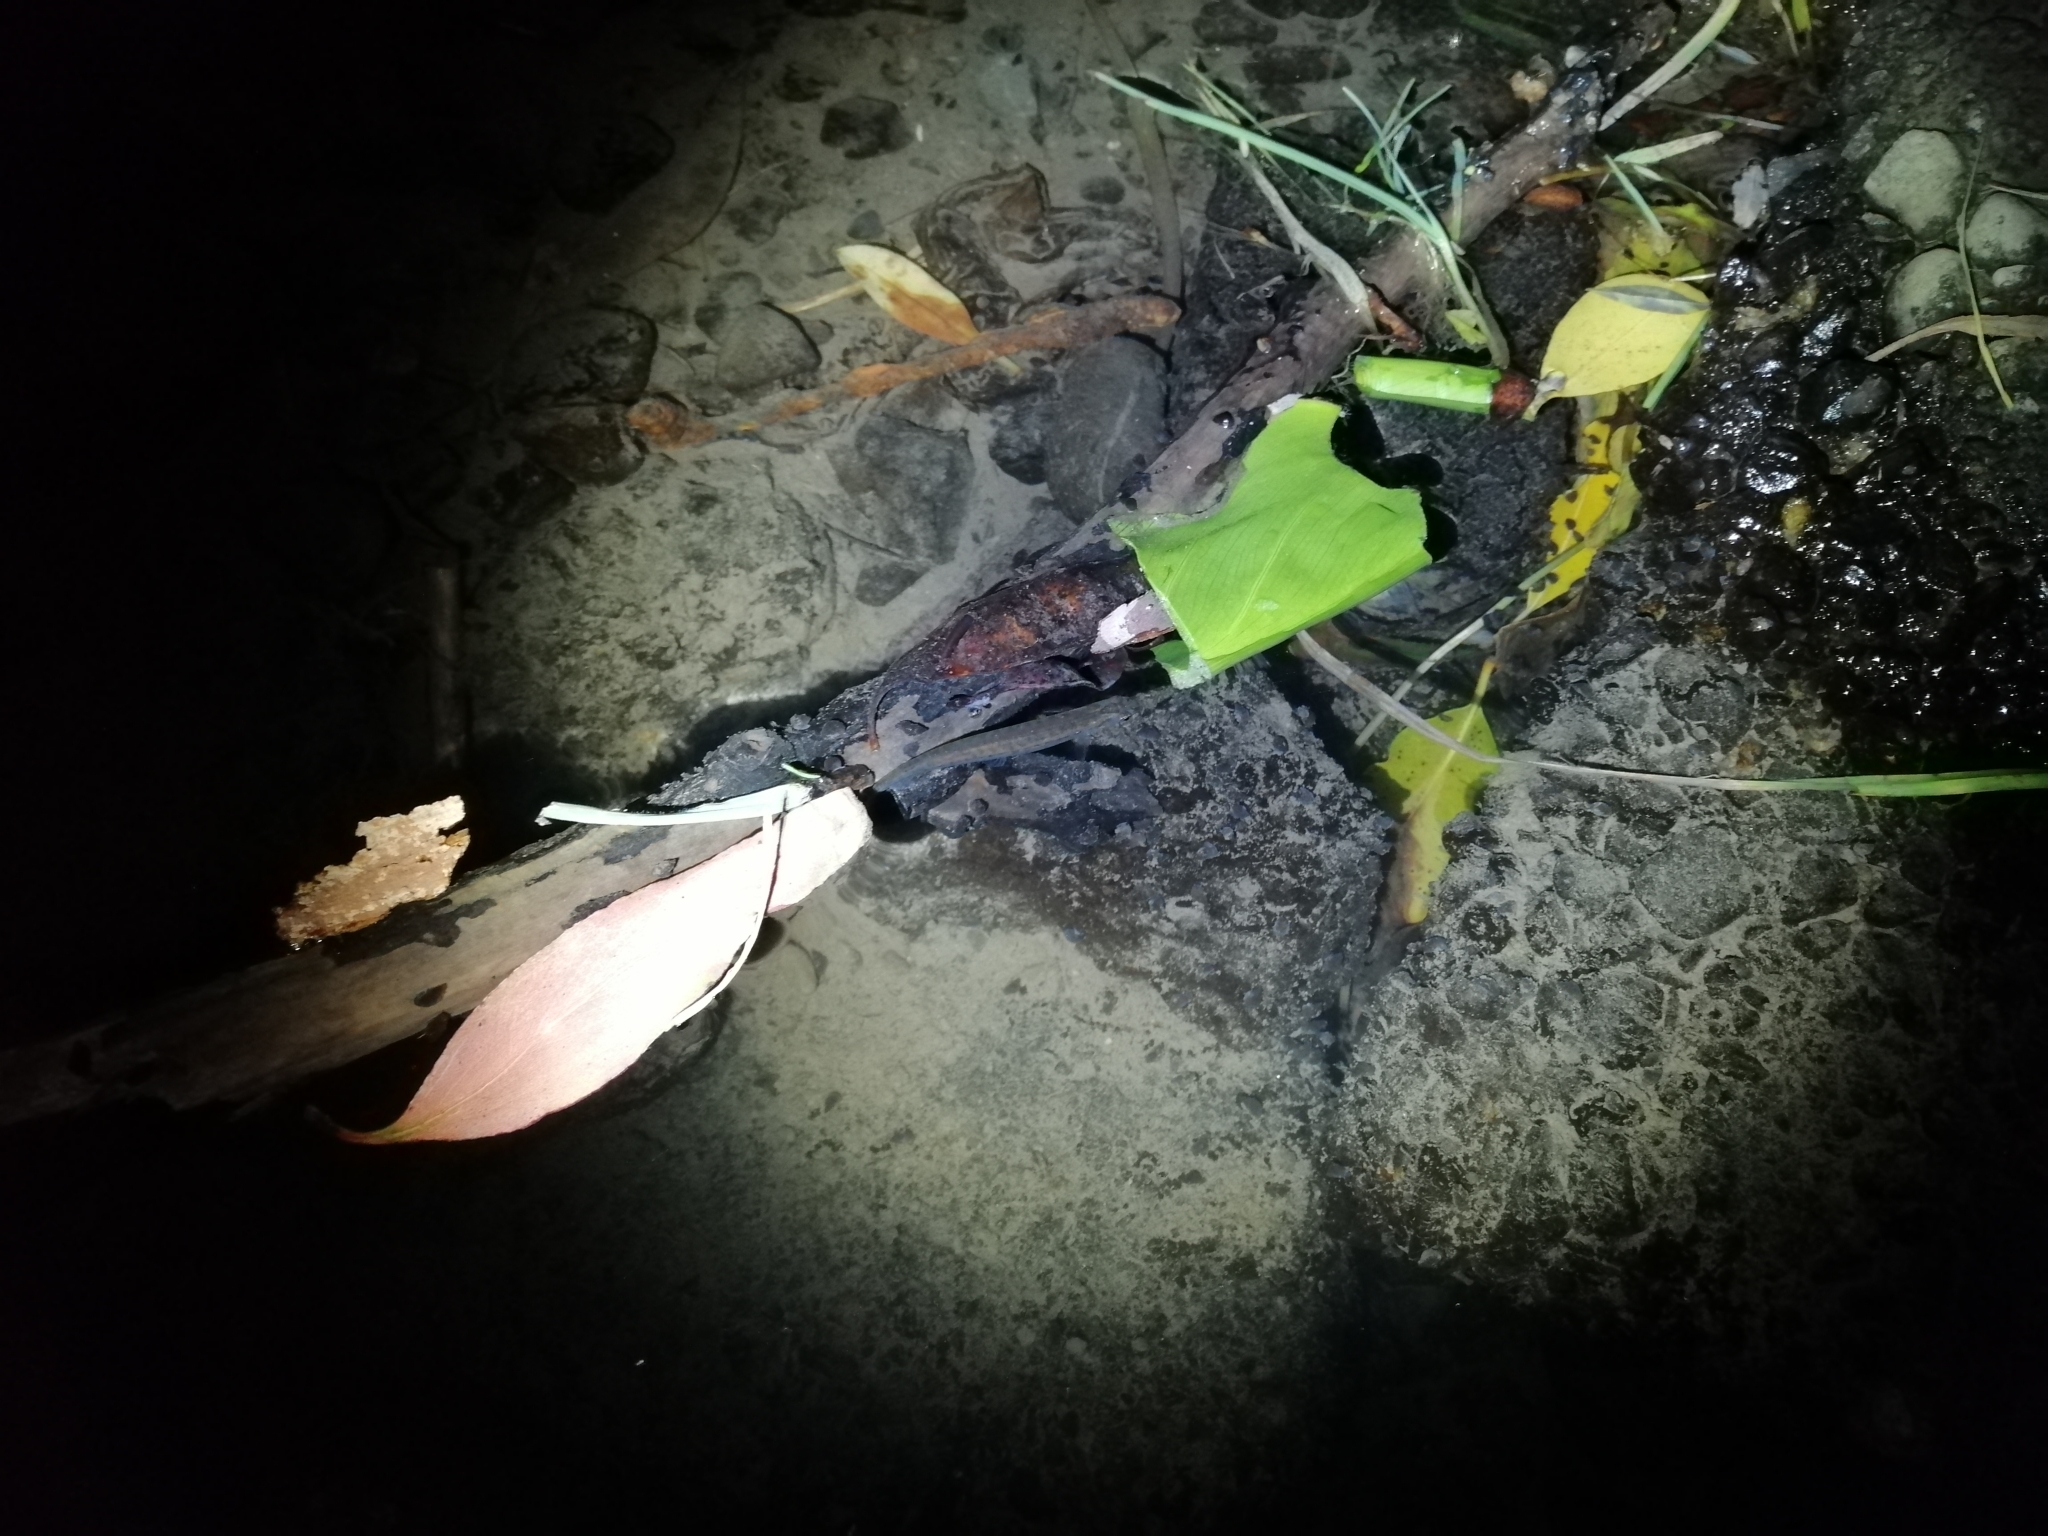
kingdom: Animalia
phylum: Chordata
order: Osmeriformes
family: Galaxiidae
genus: Galaxias
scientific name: Galaxias maculatus
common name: Common galaxias
